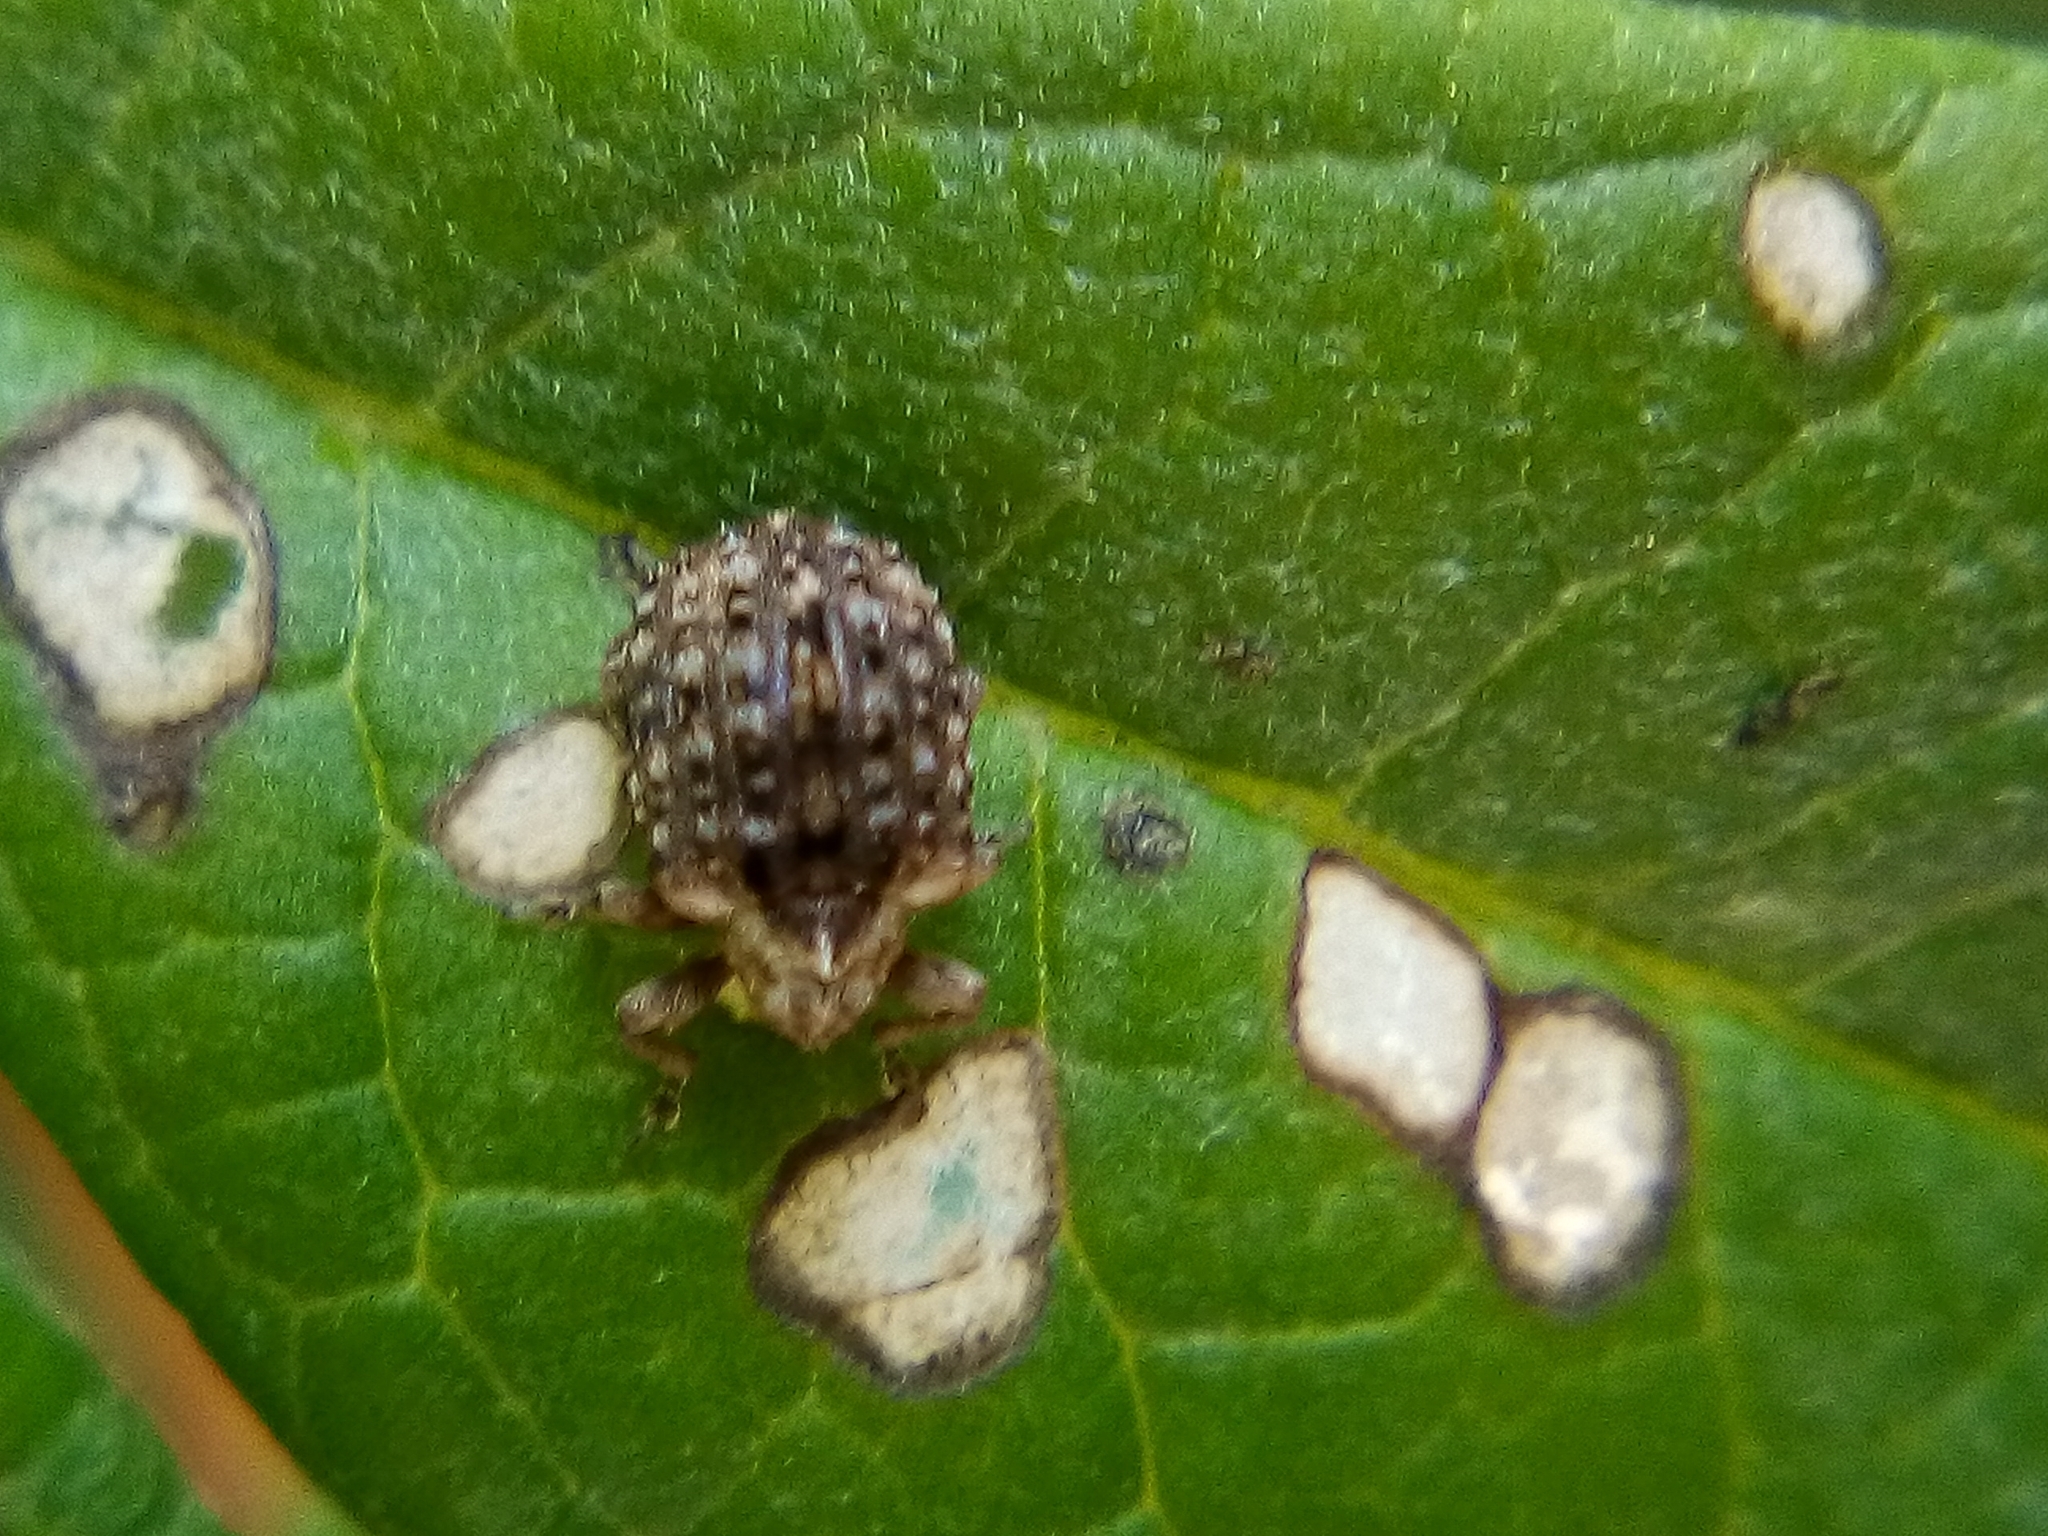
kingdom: Animalia
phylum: Arthropoda
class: Insecta
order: Coleoptera
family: Curculionidae
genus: Cleopus
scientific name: Cleopus japonicus
